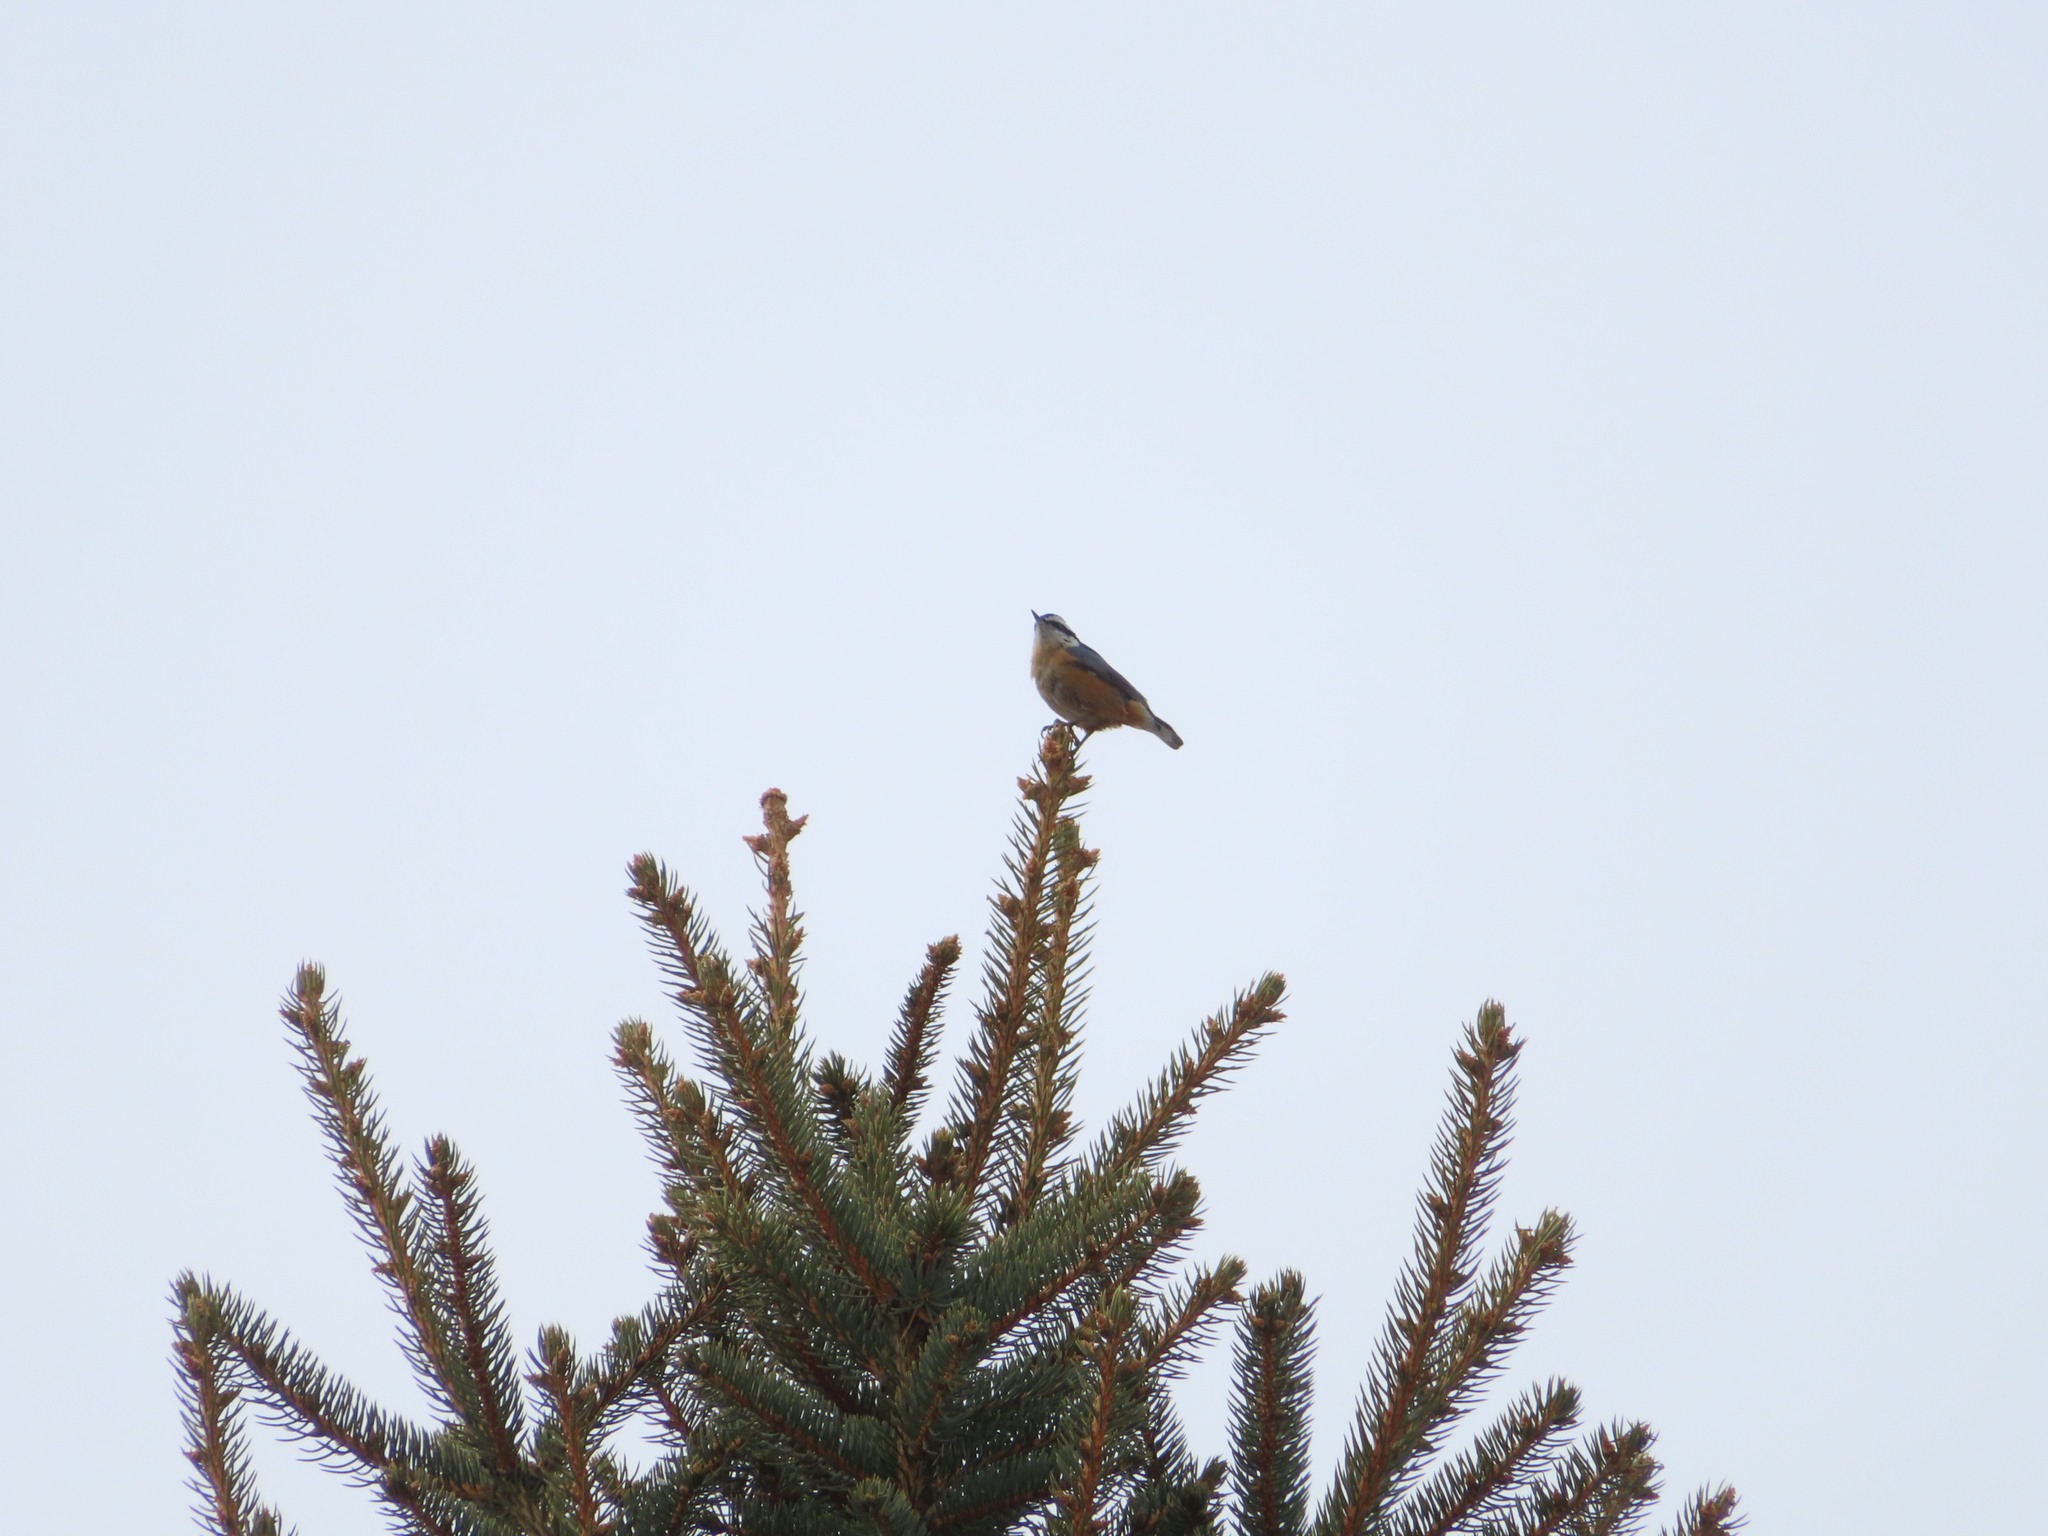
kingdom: Animalia
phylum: Chordata
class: Aves
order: Passeriformes
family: Sittidae
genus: Sitta
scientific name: Sitta canadensis
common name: Red-breasted nuthatch
